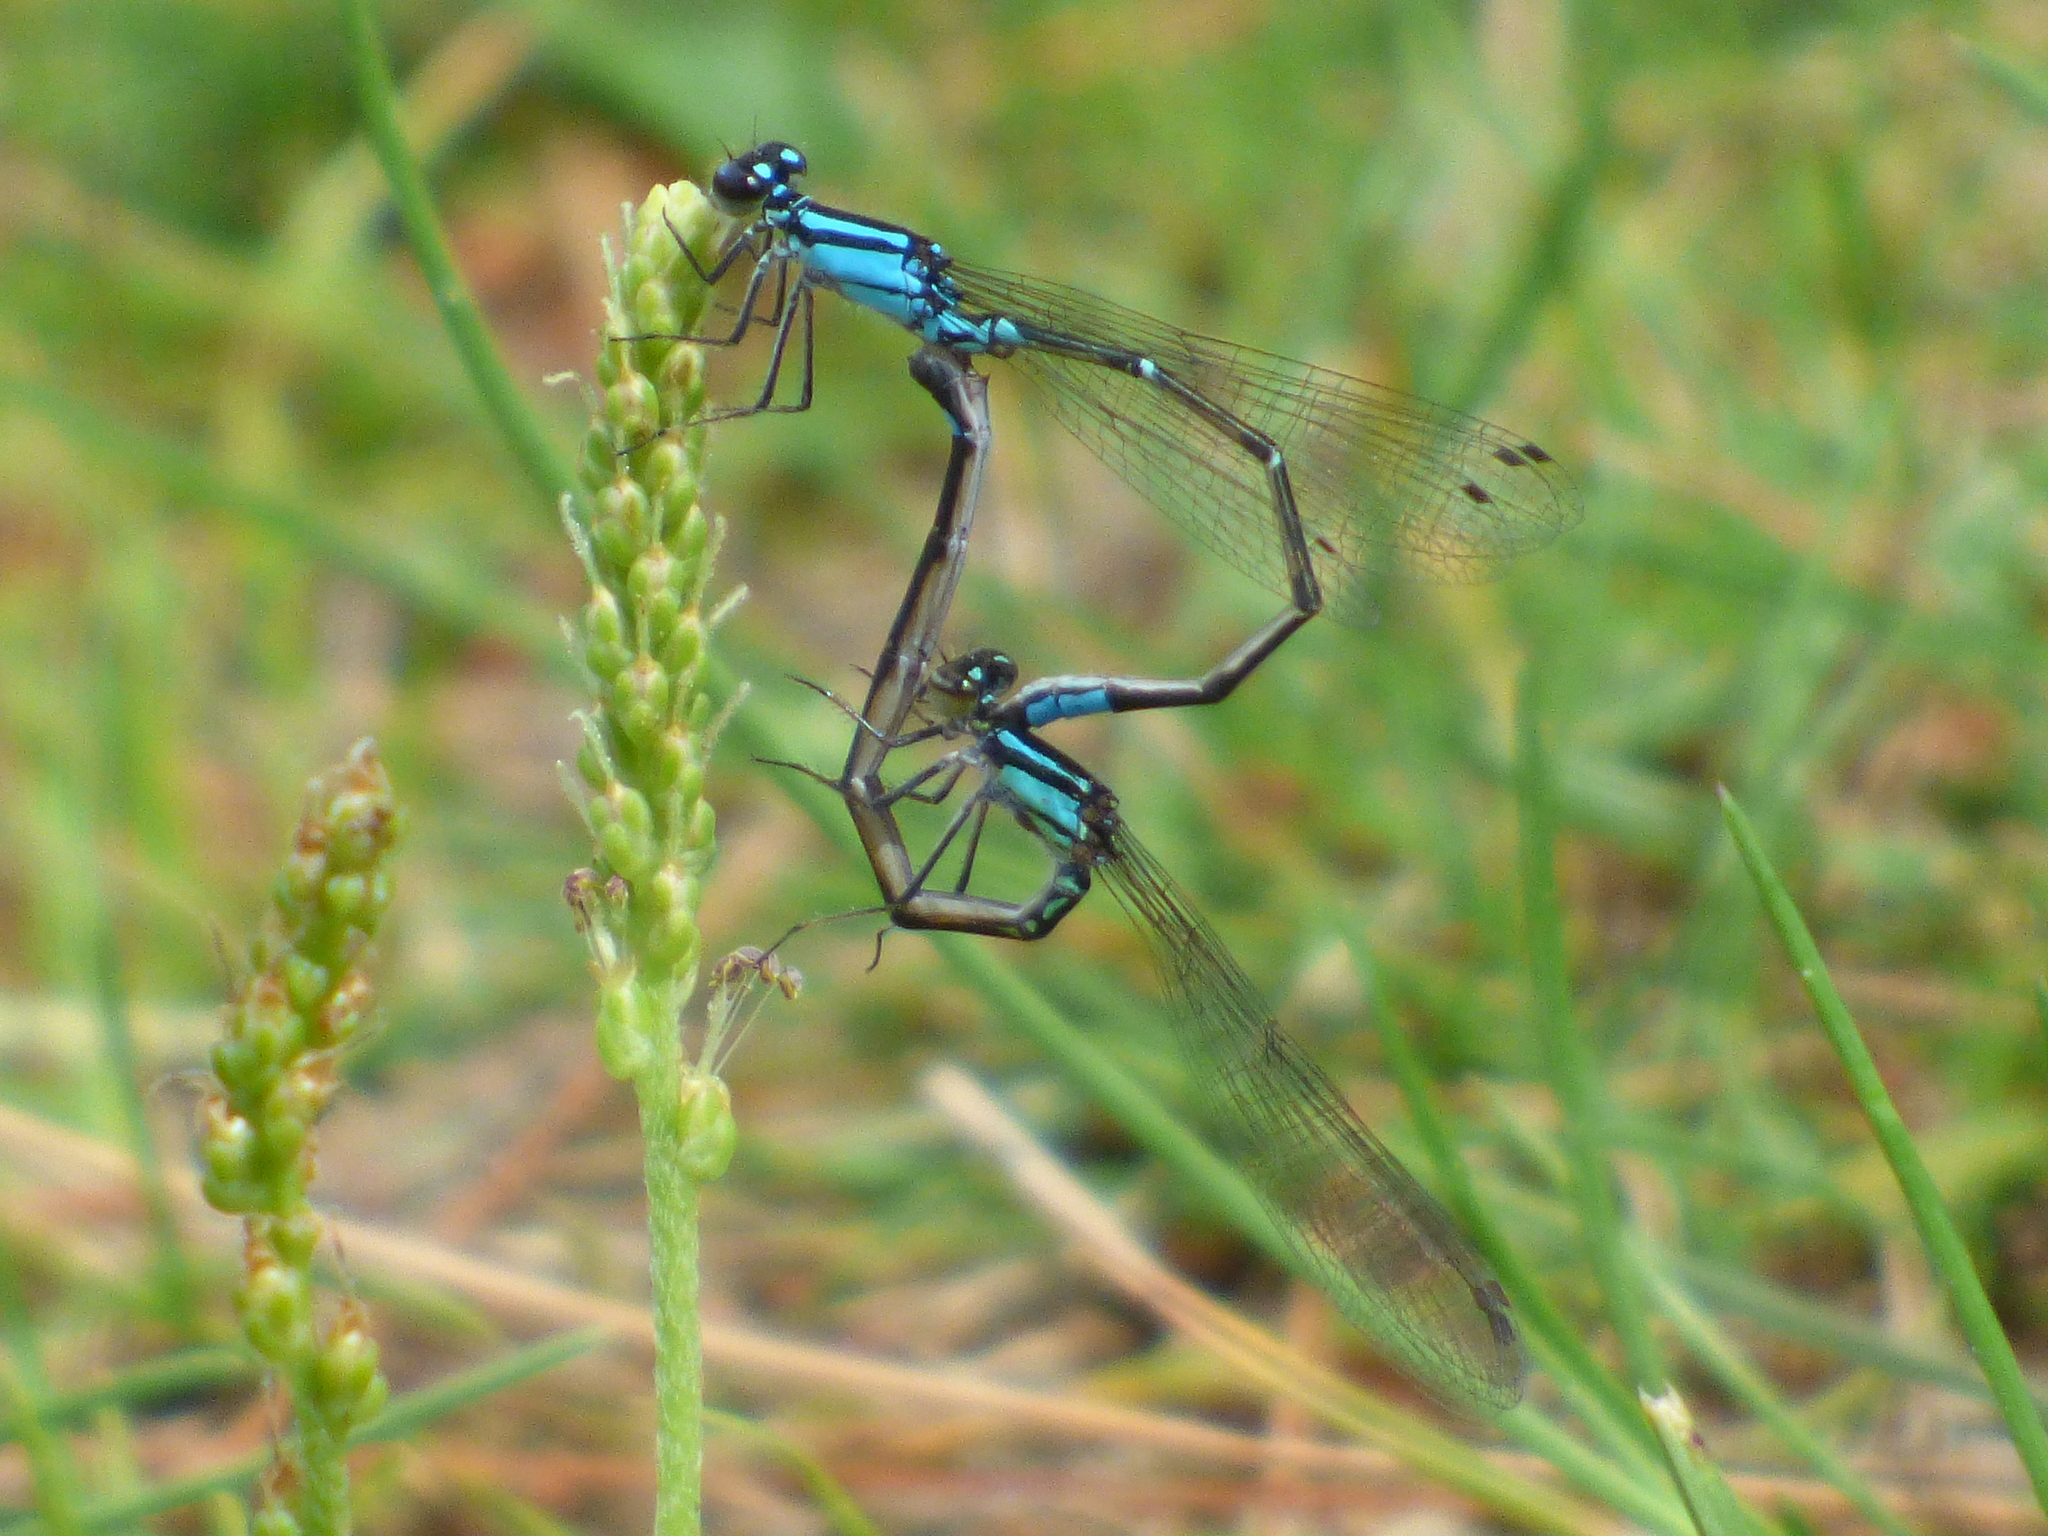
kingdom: Animalia
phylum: Arthropoda
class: Insecta
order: Odonata
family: Coenagrionidae
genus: Enallagma
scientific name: Enallagma geminatum
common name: Skimming bluet
